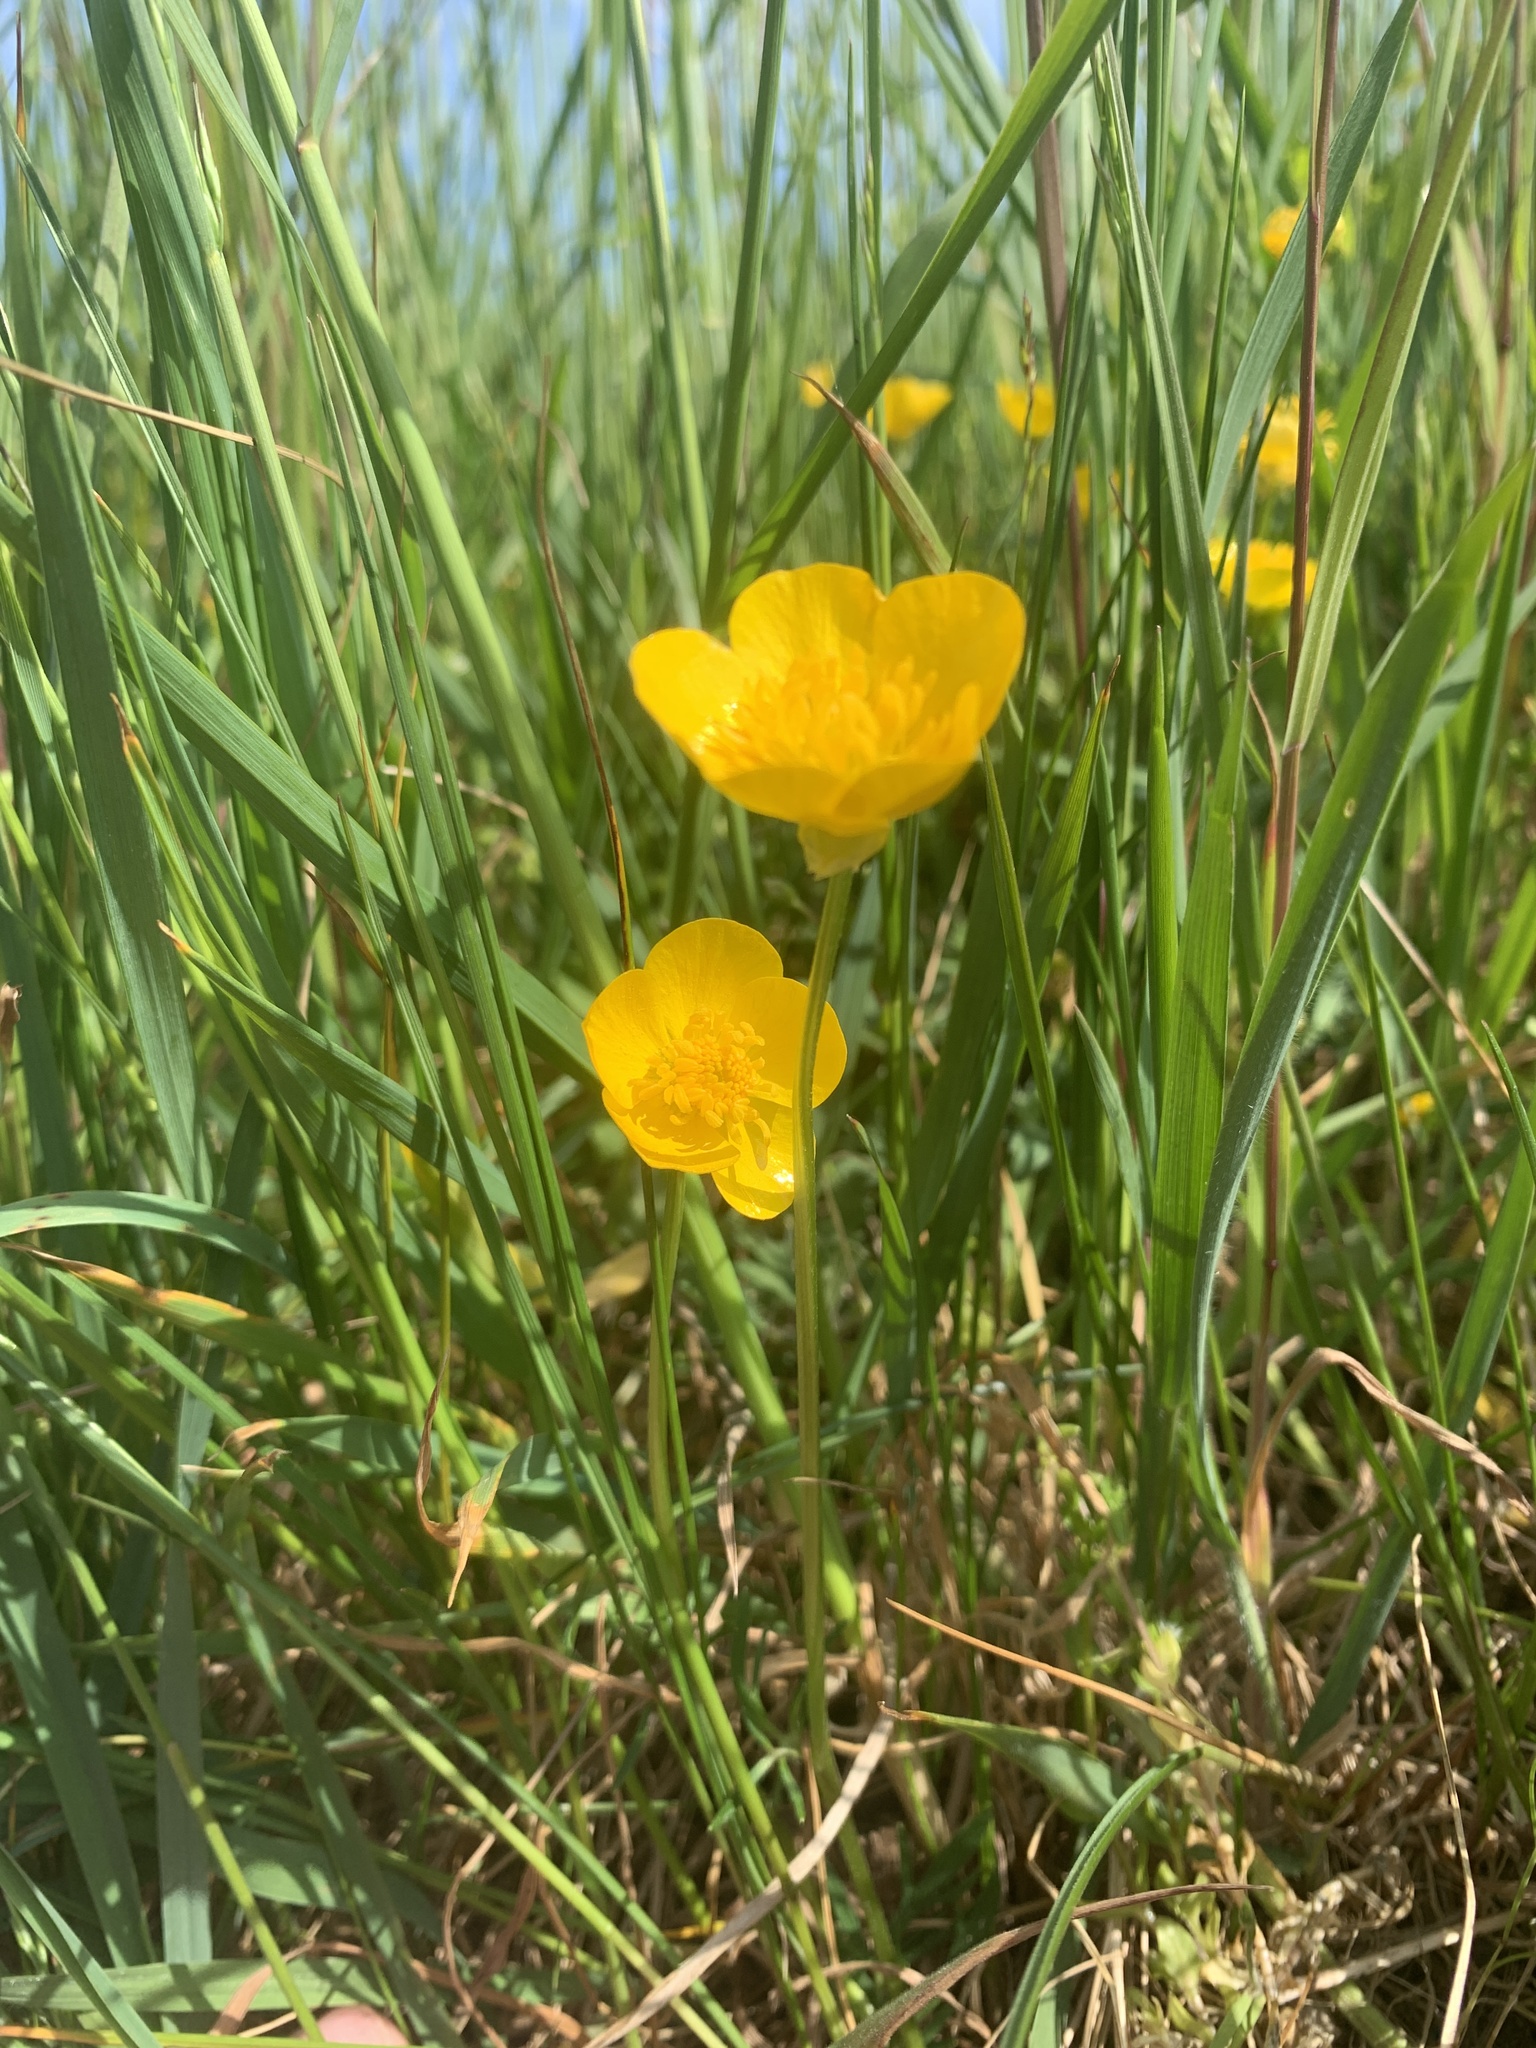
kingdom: Plantae
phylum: Tracheophyta
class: Magnoliopsida
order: Ranunculales
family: Ranunculaceae
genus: Ranunculus
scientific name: Ranunculus bulbosus
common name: Bulbous buttercup
